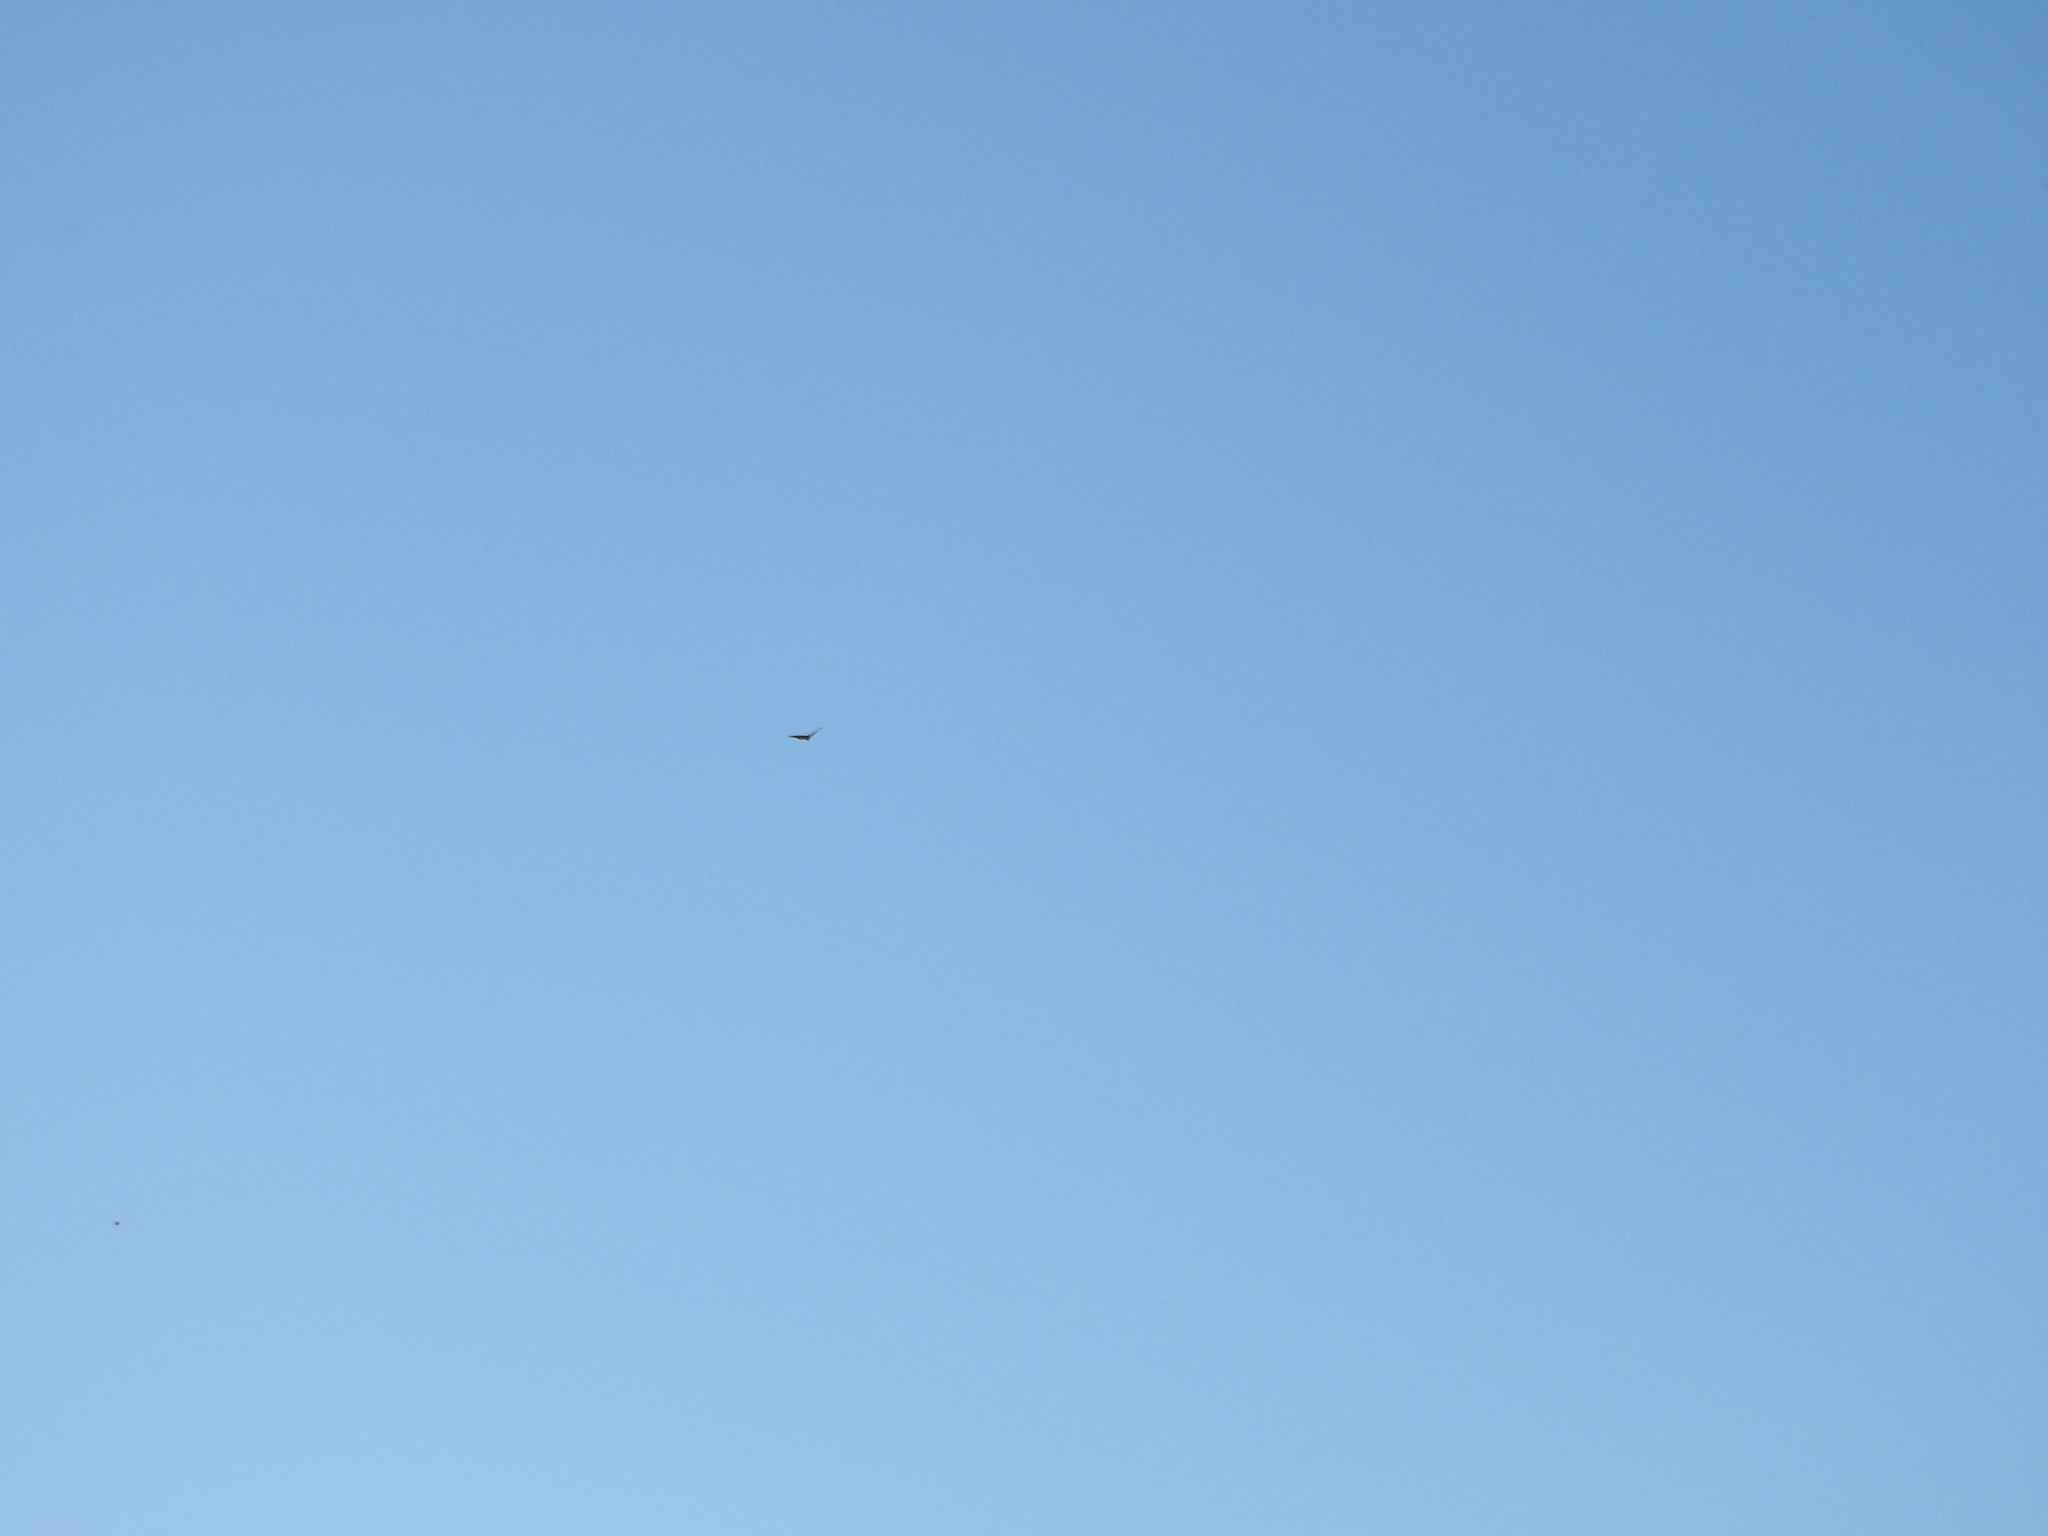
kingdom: Animalia
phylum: Arthropoda
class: Insecta
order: Lepidoptera
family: Nymphalidae
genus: Danaus
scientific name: Danaus plexippus
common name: Monarch
